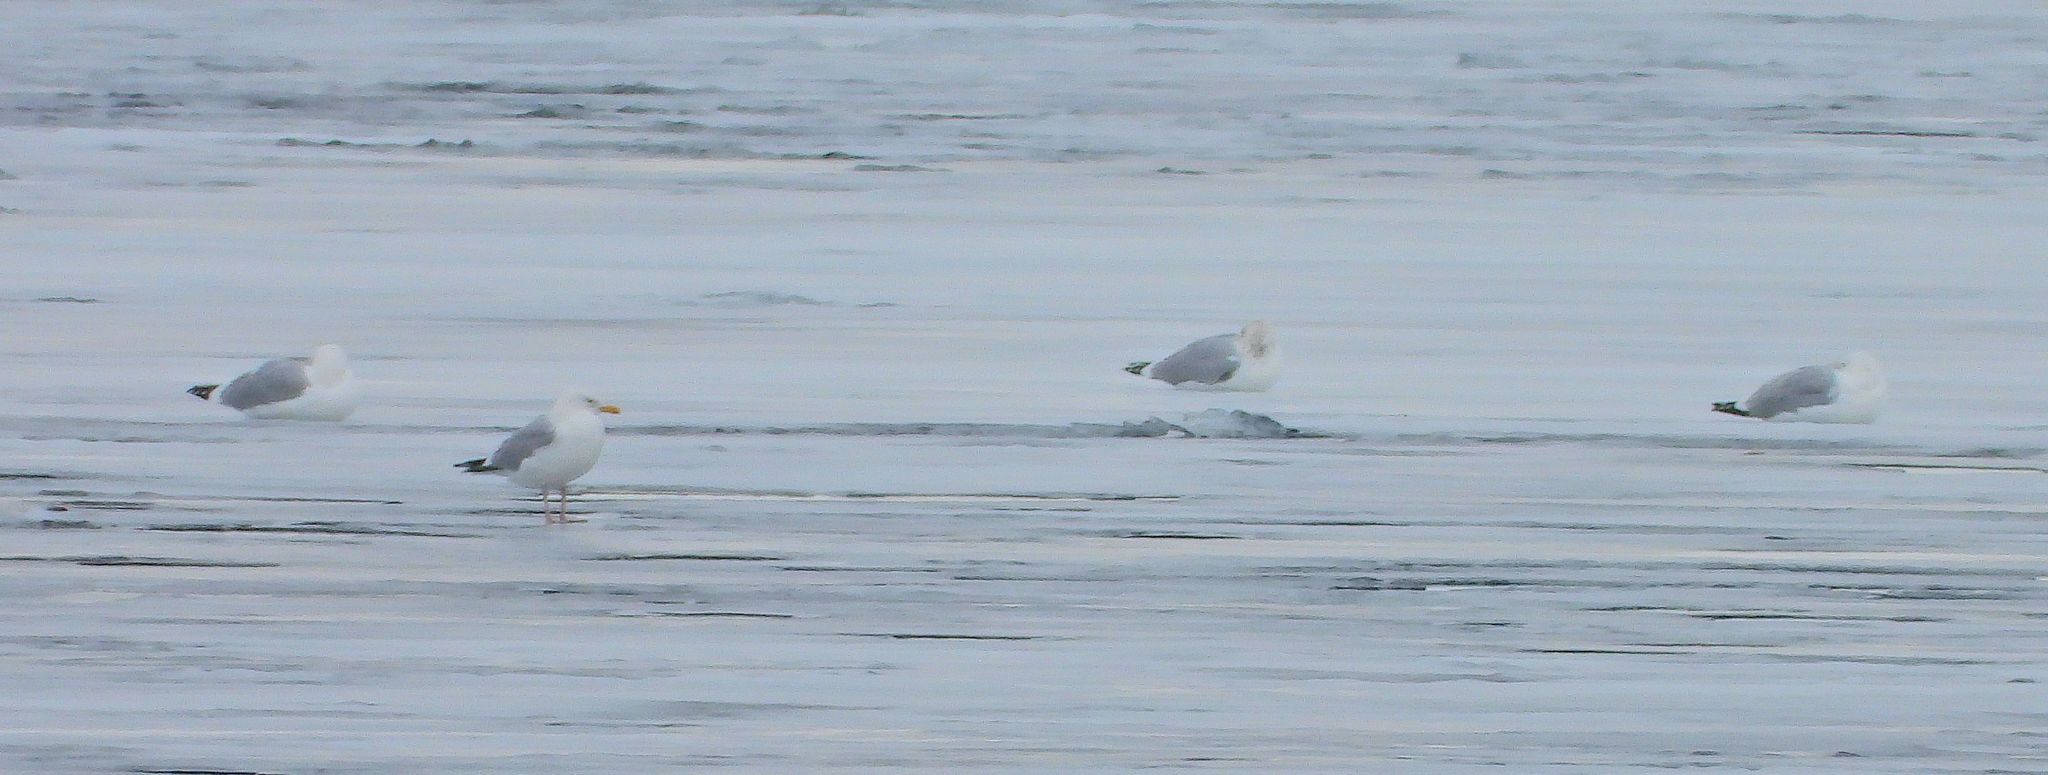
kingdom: Animalia
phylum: Chordata
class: Aves
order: Charadriiformes
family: Laridae
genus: Larus
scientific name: Larus argentatus
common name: Herring gull
